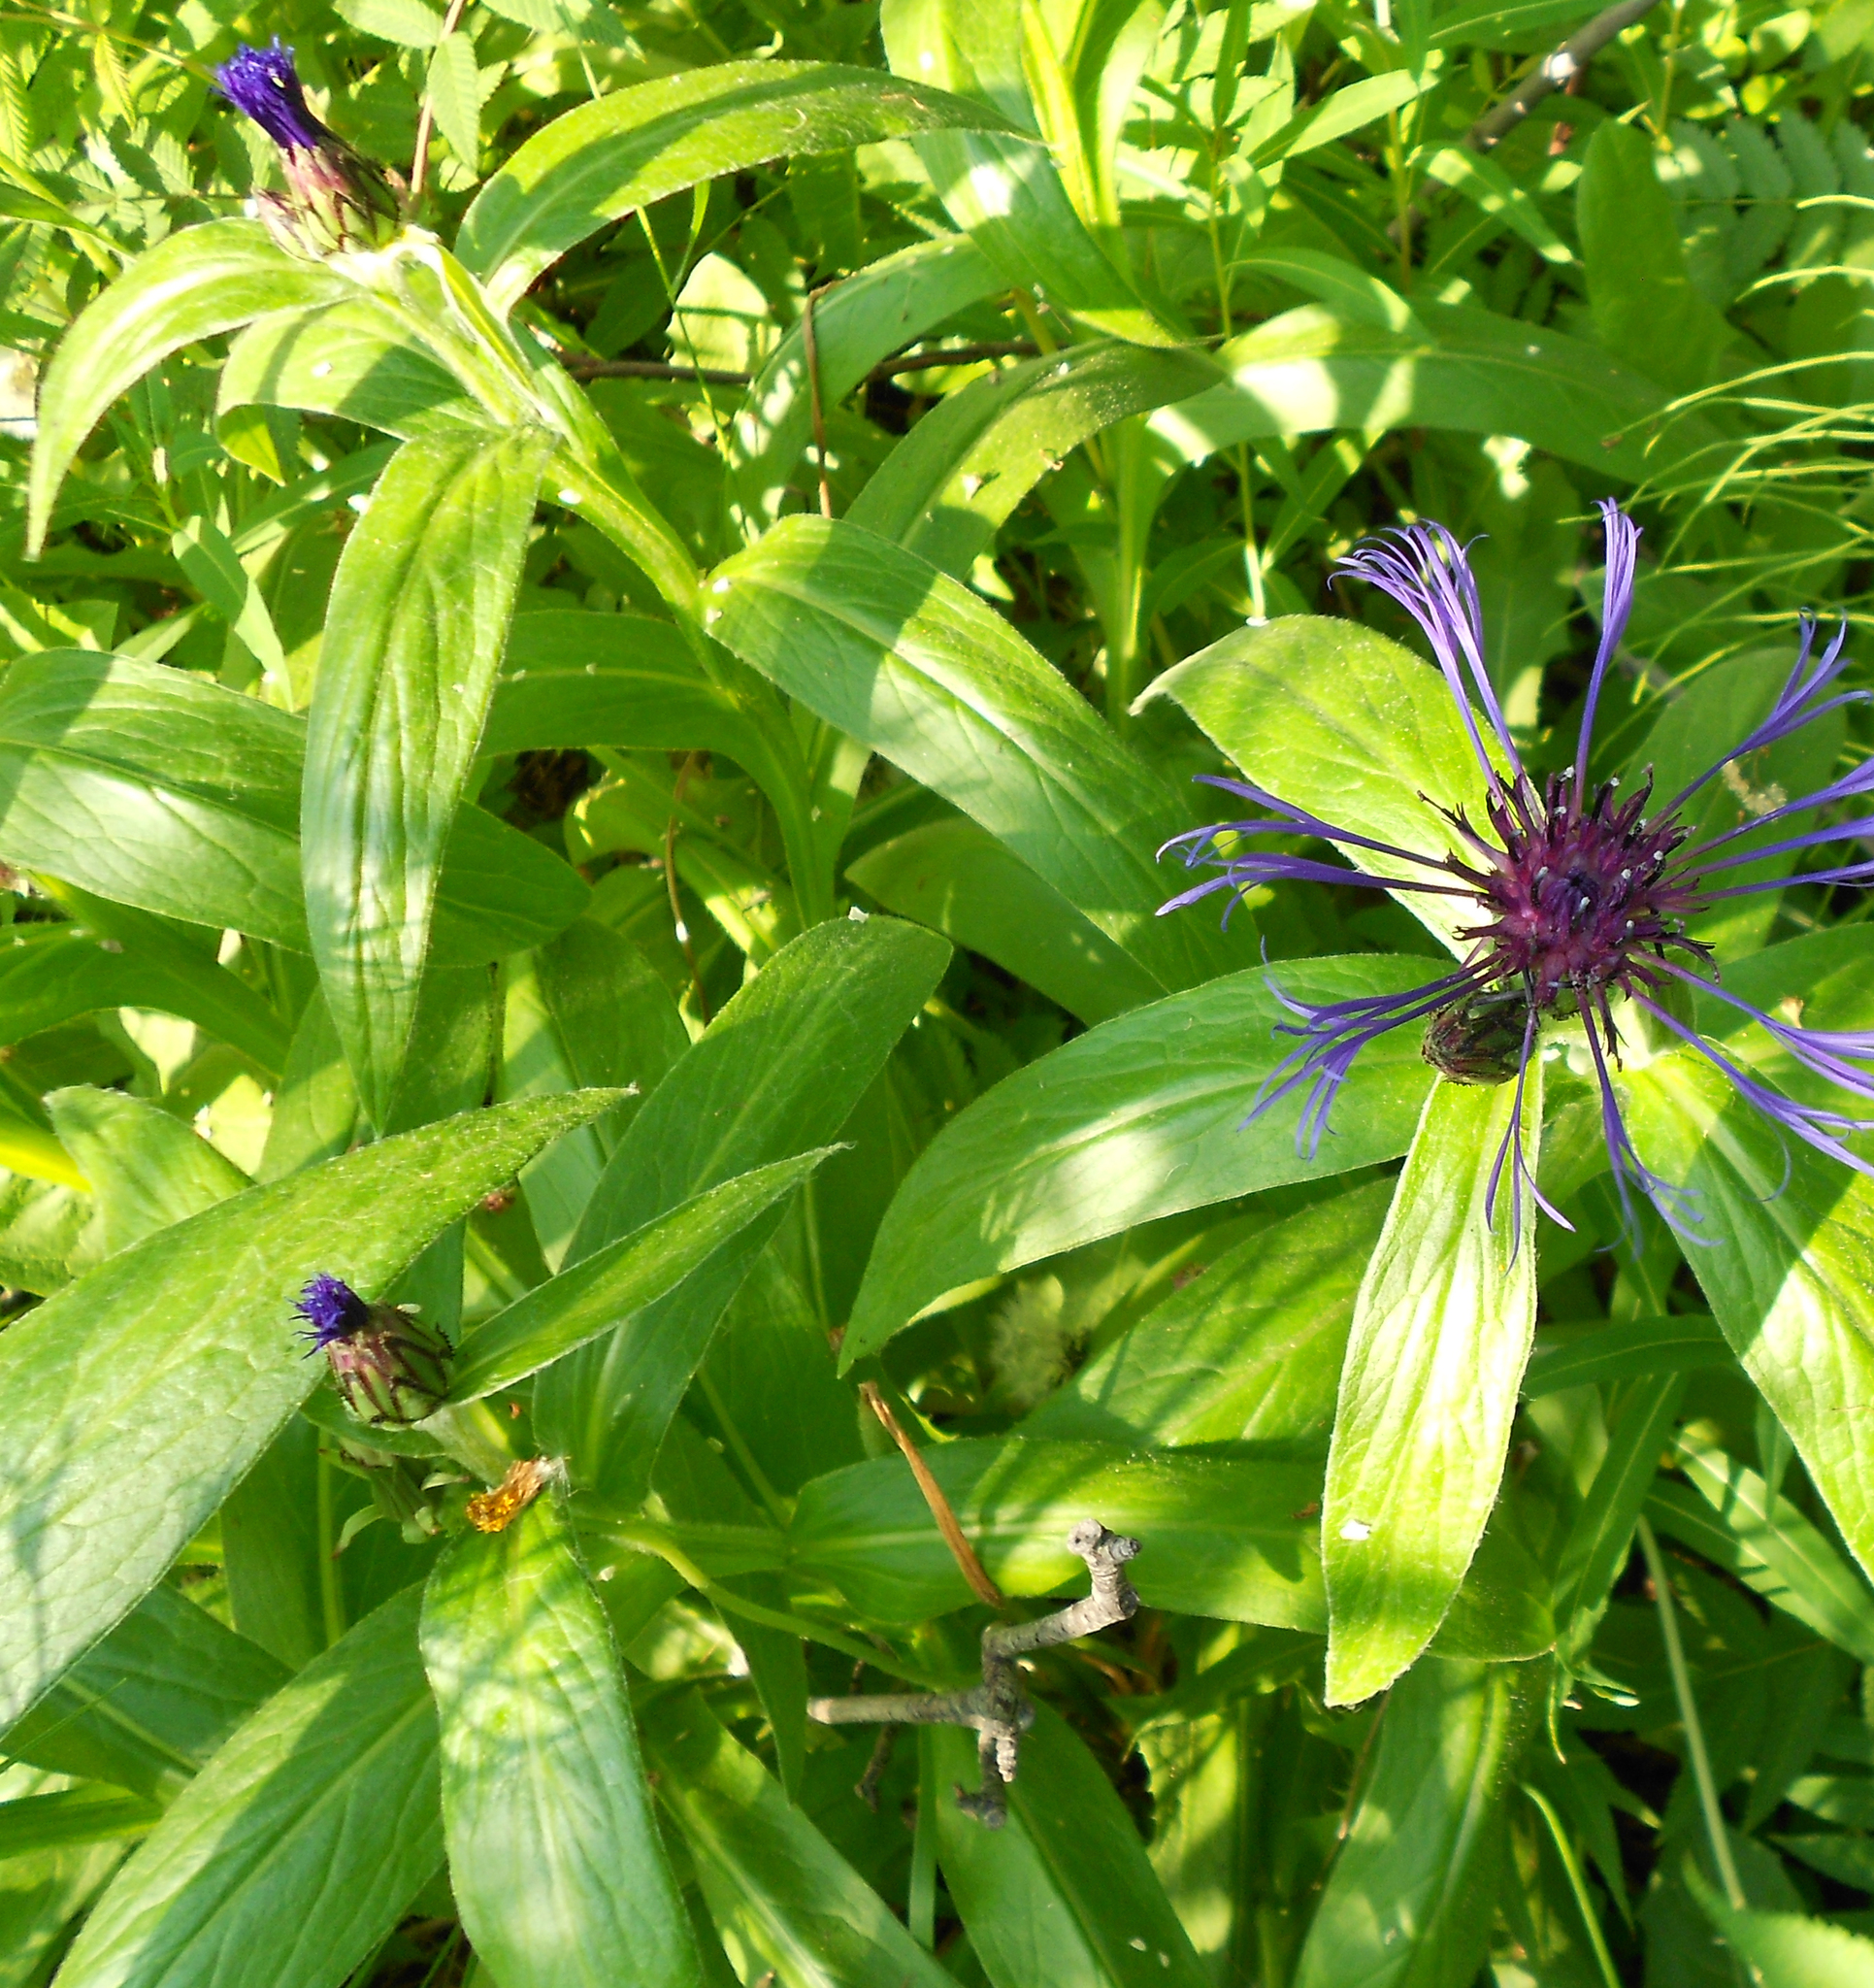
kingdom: Plantae
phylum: Tracheophyta
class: Magnoliopsida
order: Asterales
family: Asteraceae
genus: Centaurea
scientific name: Centaurea montana
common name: Perennial cornflower
